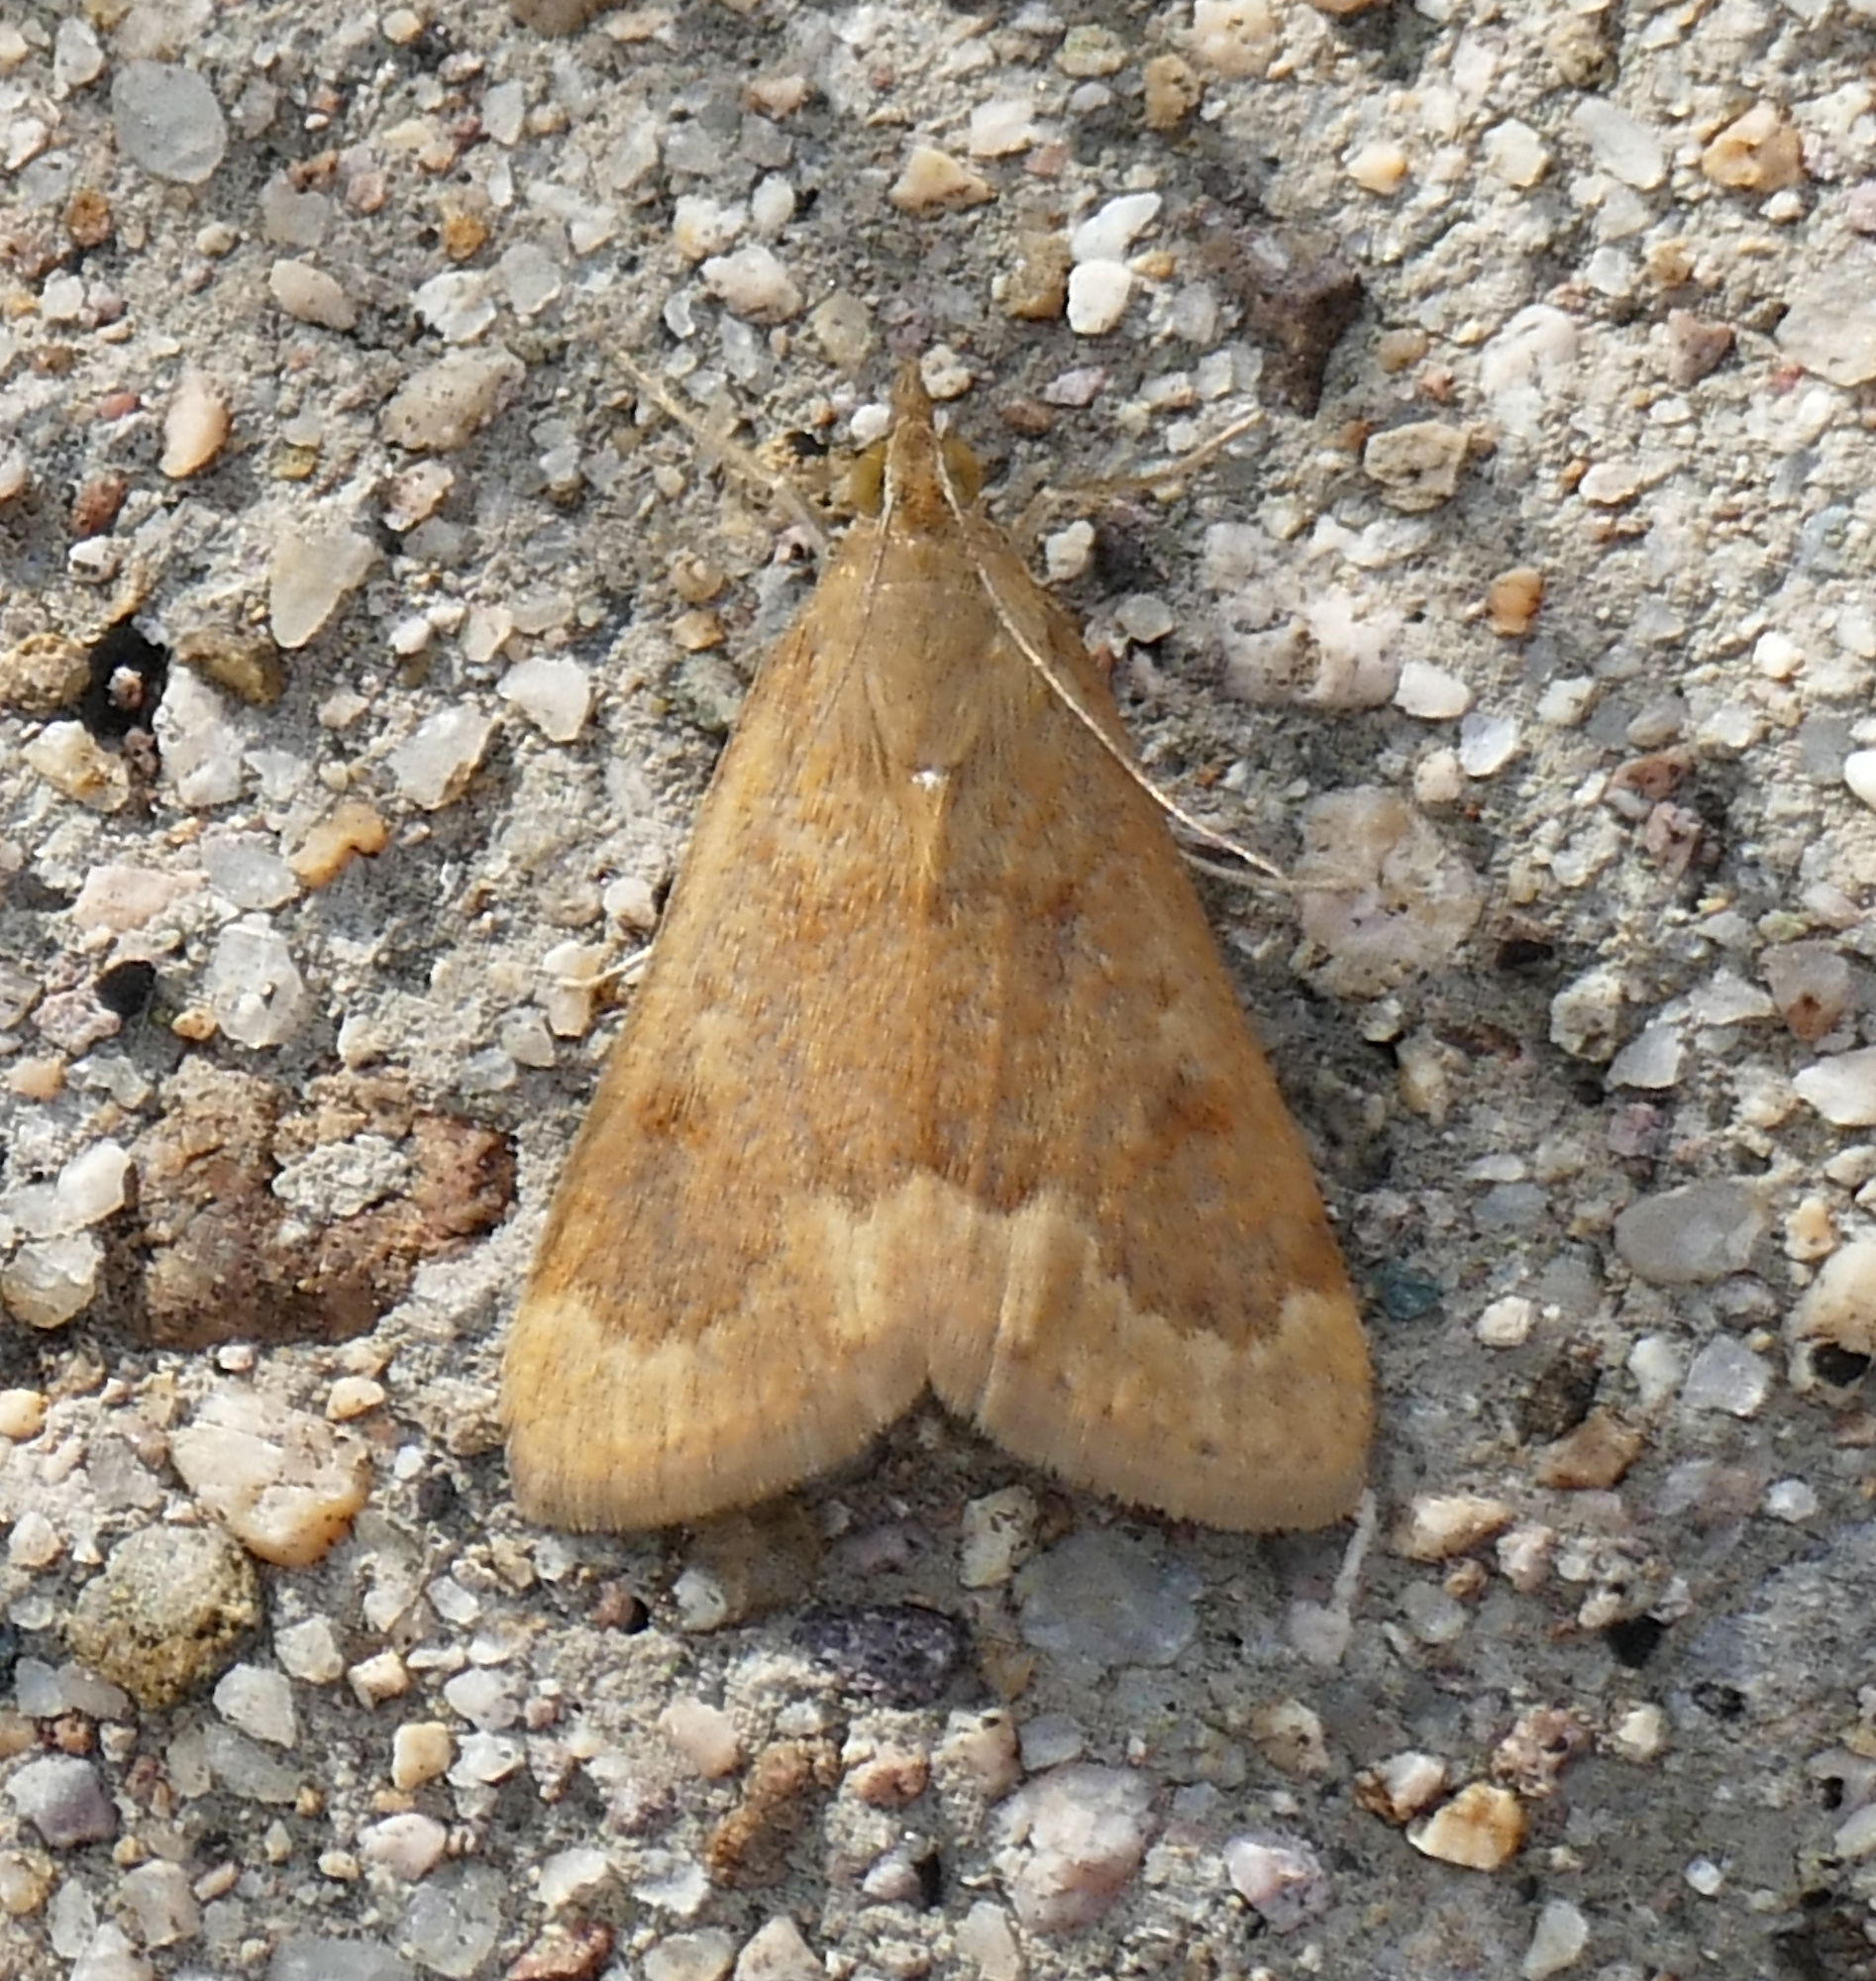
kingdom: Animalia
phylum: Arthropoda
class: Insecta
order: Lepidoptera
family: Crambidae
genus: Achyra
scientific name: Achyra rantalis
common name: Garden webworm
